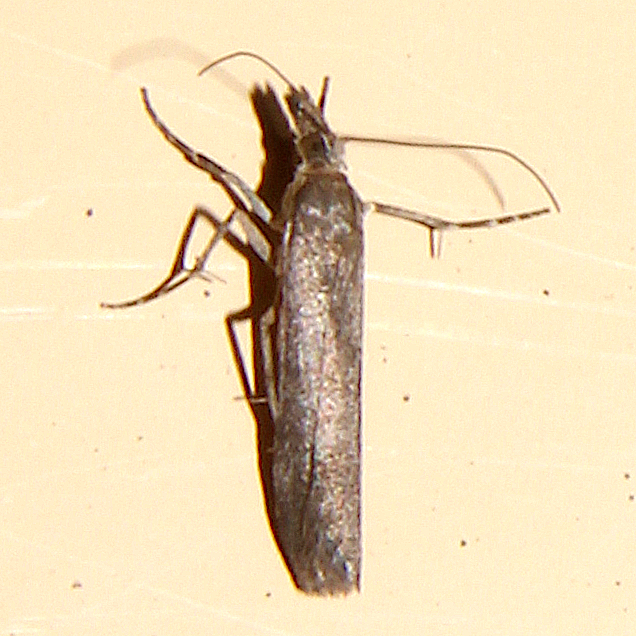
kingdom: Animalia
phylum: Arthropoda
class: Insecta
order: Lepidoptera
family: Crambidae
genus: Eudonia
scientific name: Eudonia leptalea
